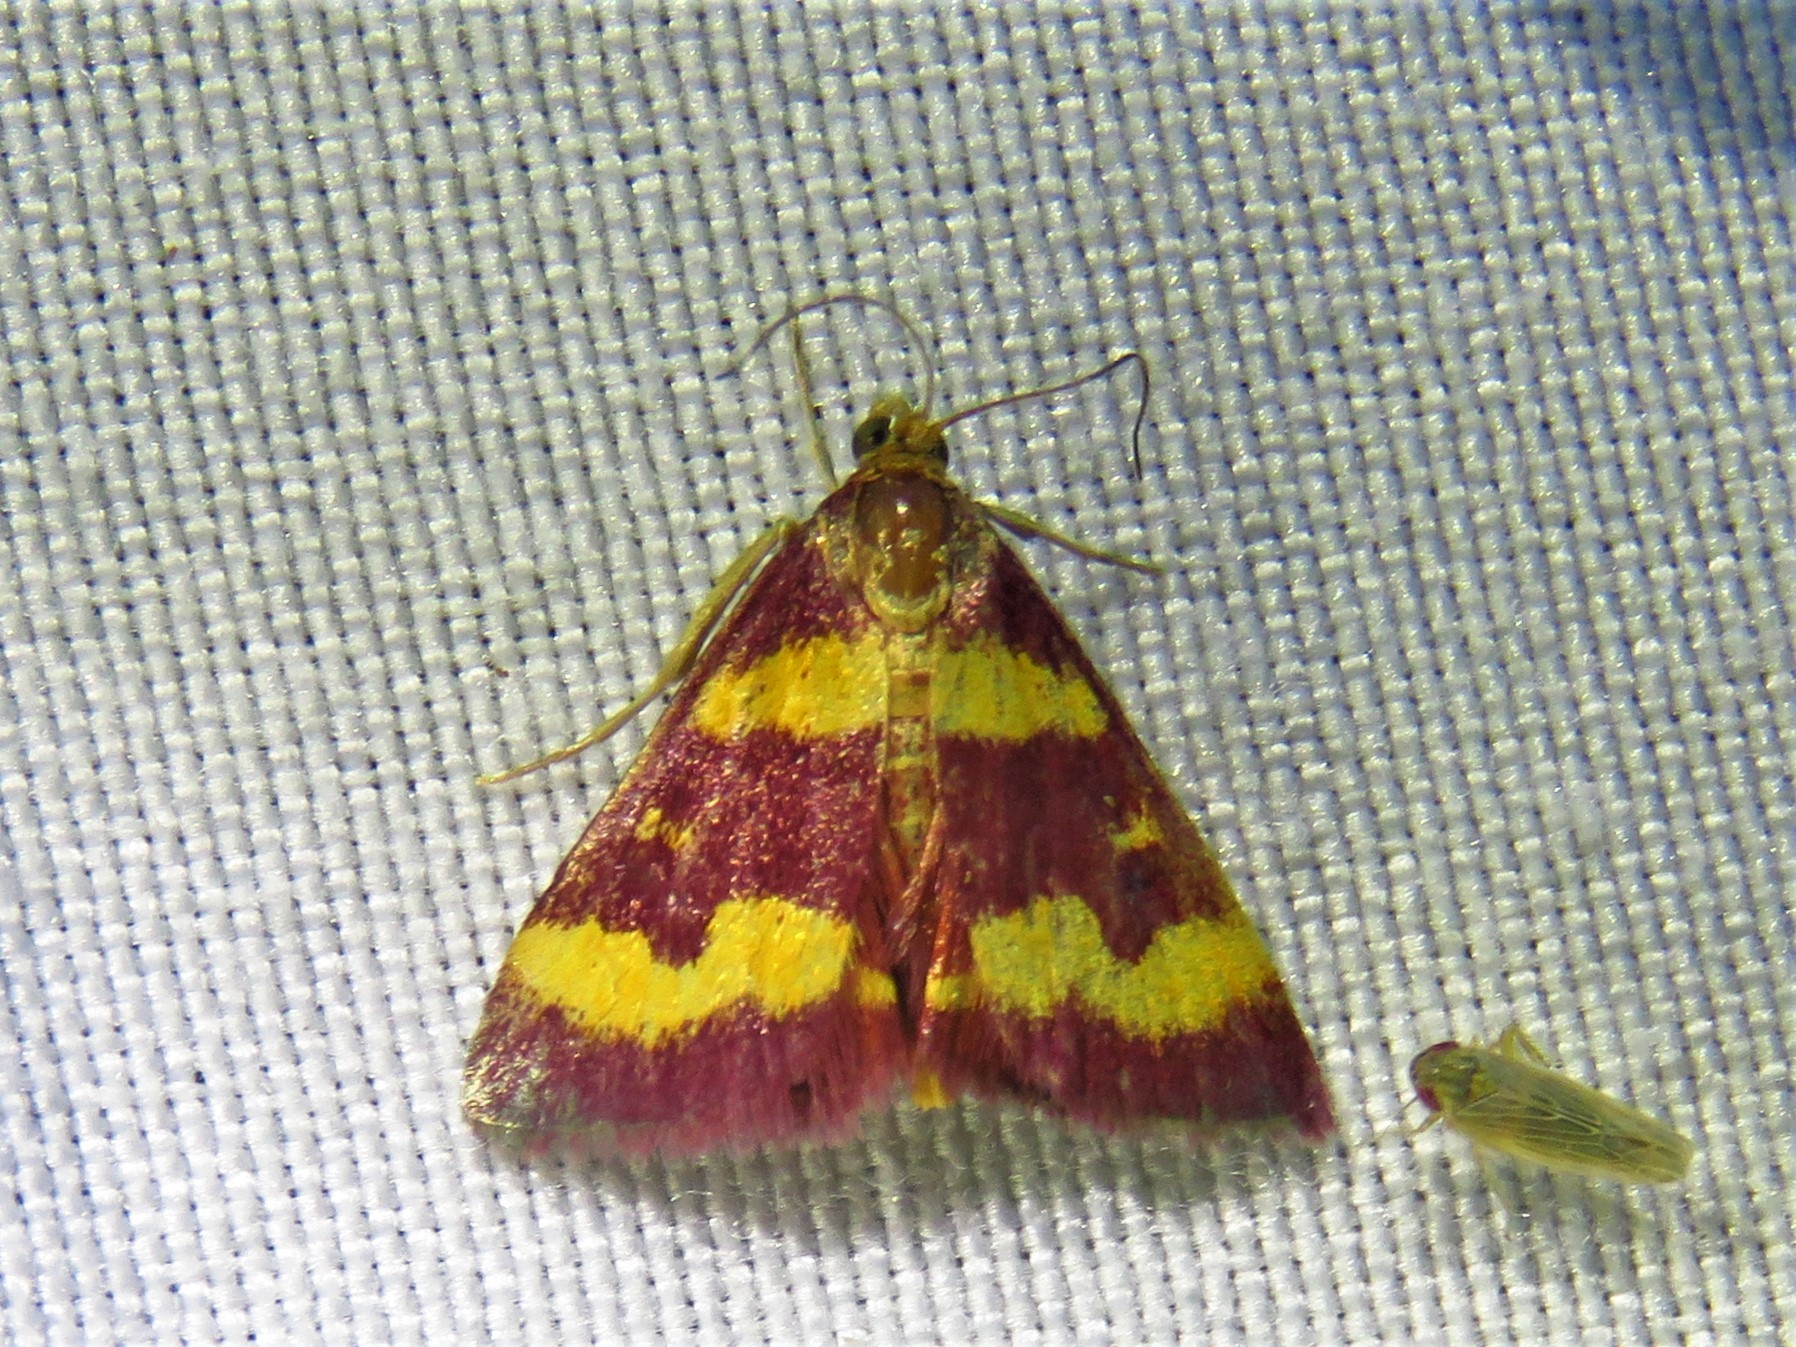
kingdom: Animalia
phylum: Arthropoda
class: Insecta
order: Lepidoptera
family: Crambidae
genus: Pyrausta
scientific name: Pyrausta tyralis
